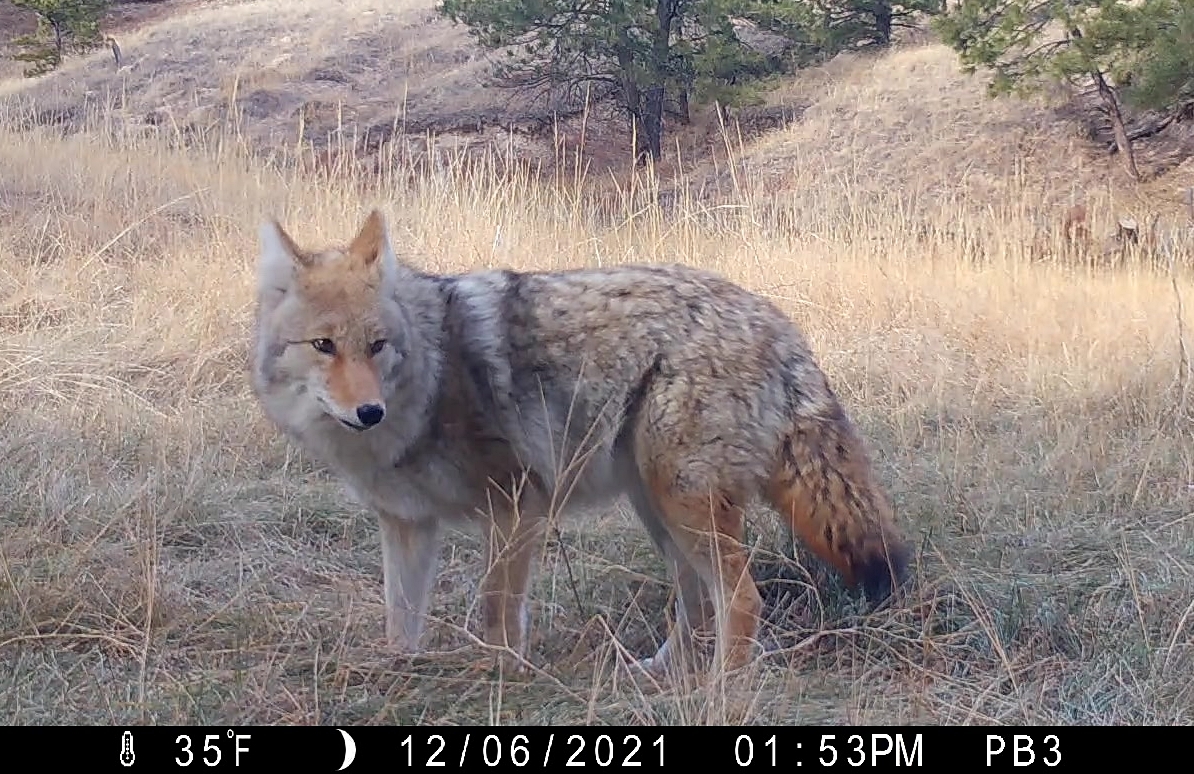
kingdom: Animalia
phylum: Chordata
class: Mammalia
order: Carnivora
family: Canidae
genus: Canis
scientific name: Canis latrans
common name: Coyote
